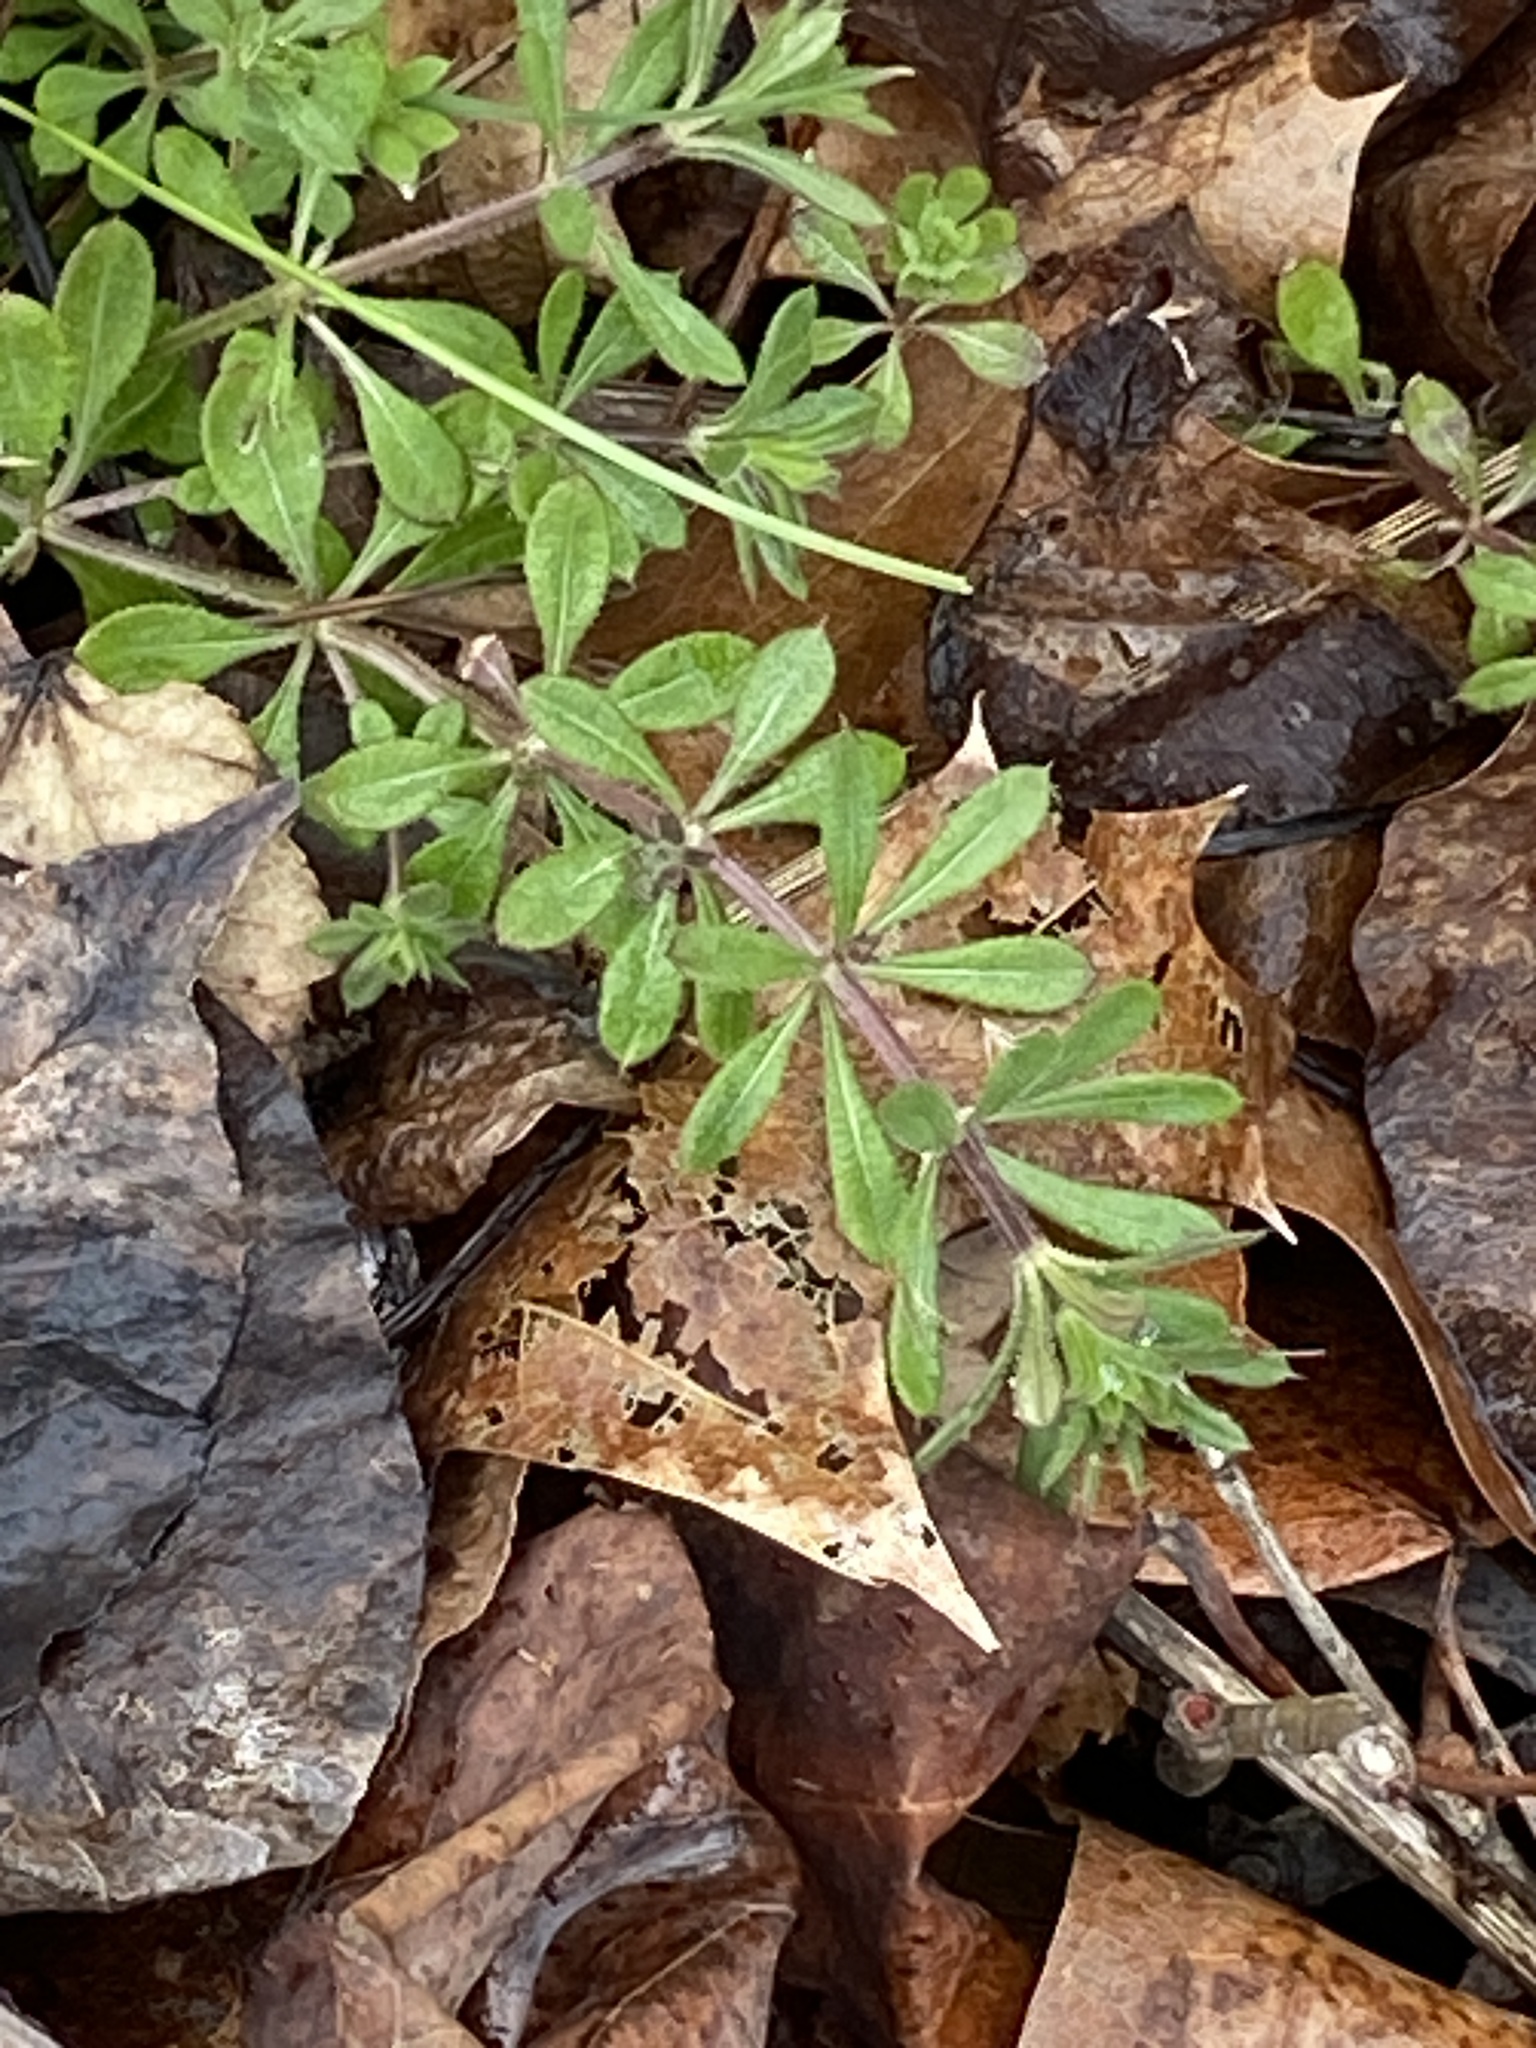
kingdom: Plantae
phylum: Tracheophyta
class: Magnoliopsida
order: Gentianales
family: Rubiaceae
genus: Galium
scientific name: Galium aparine
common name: Cleavers
